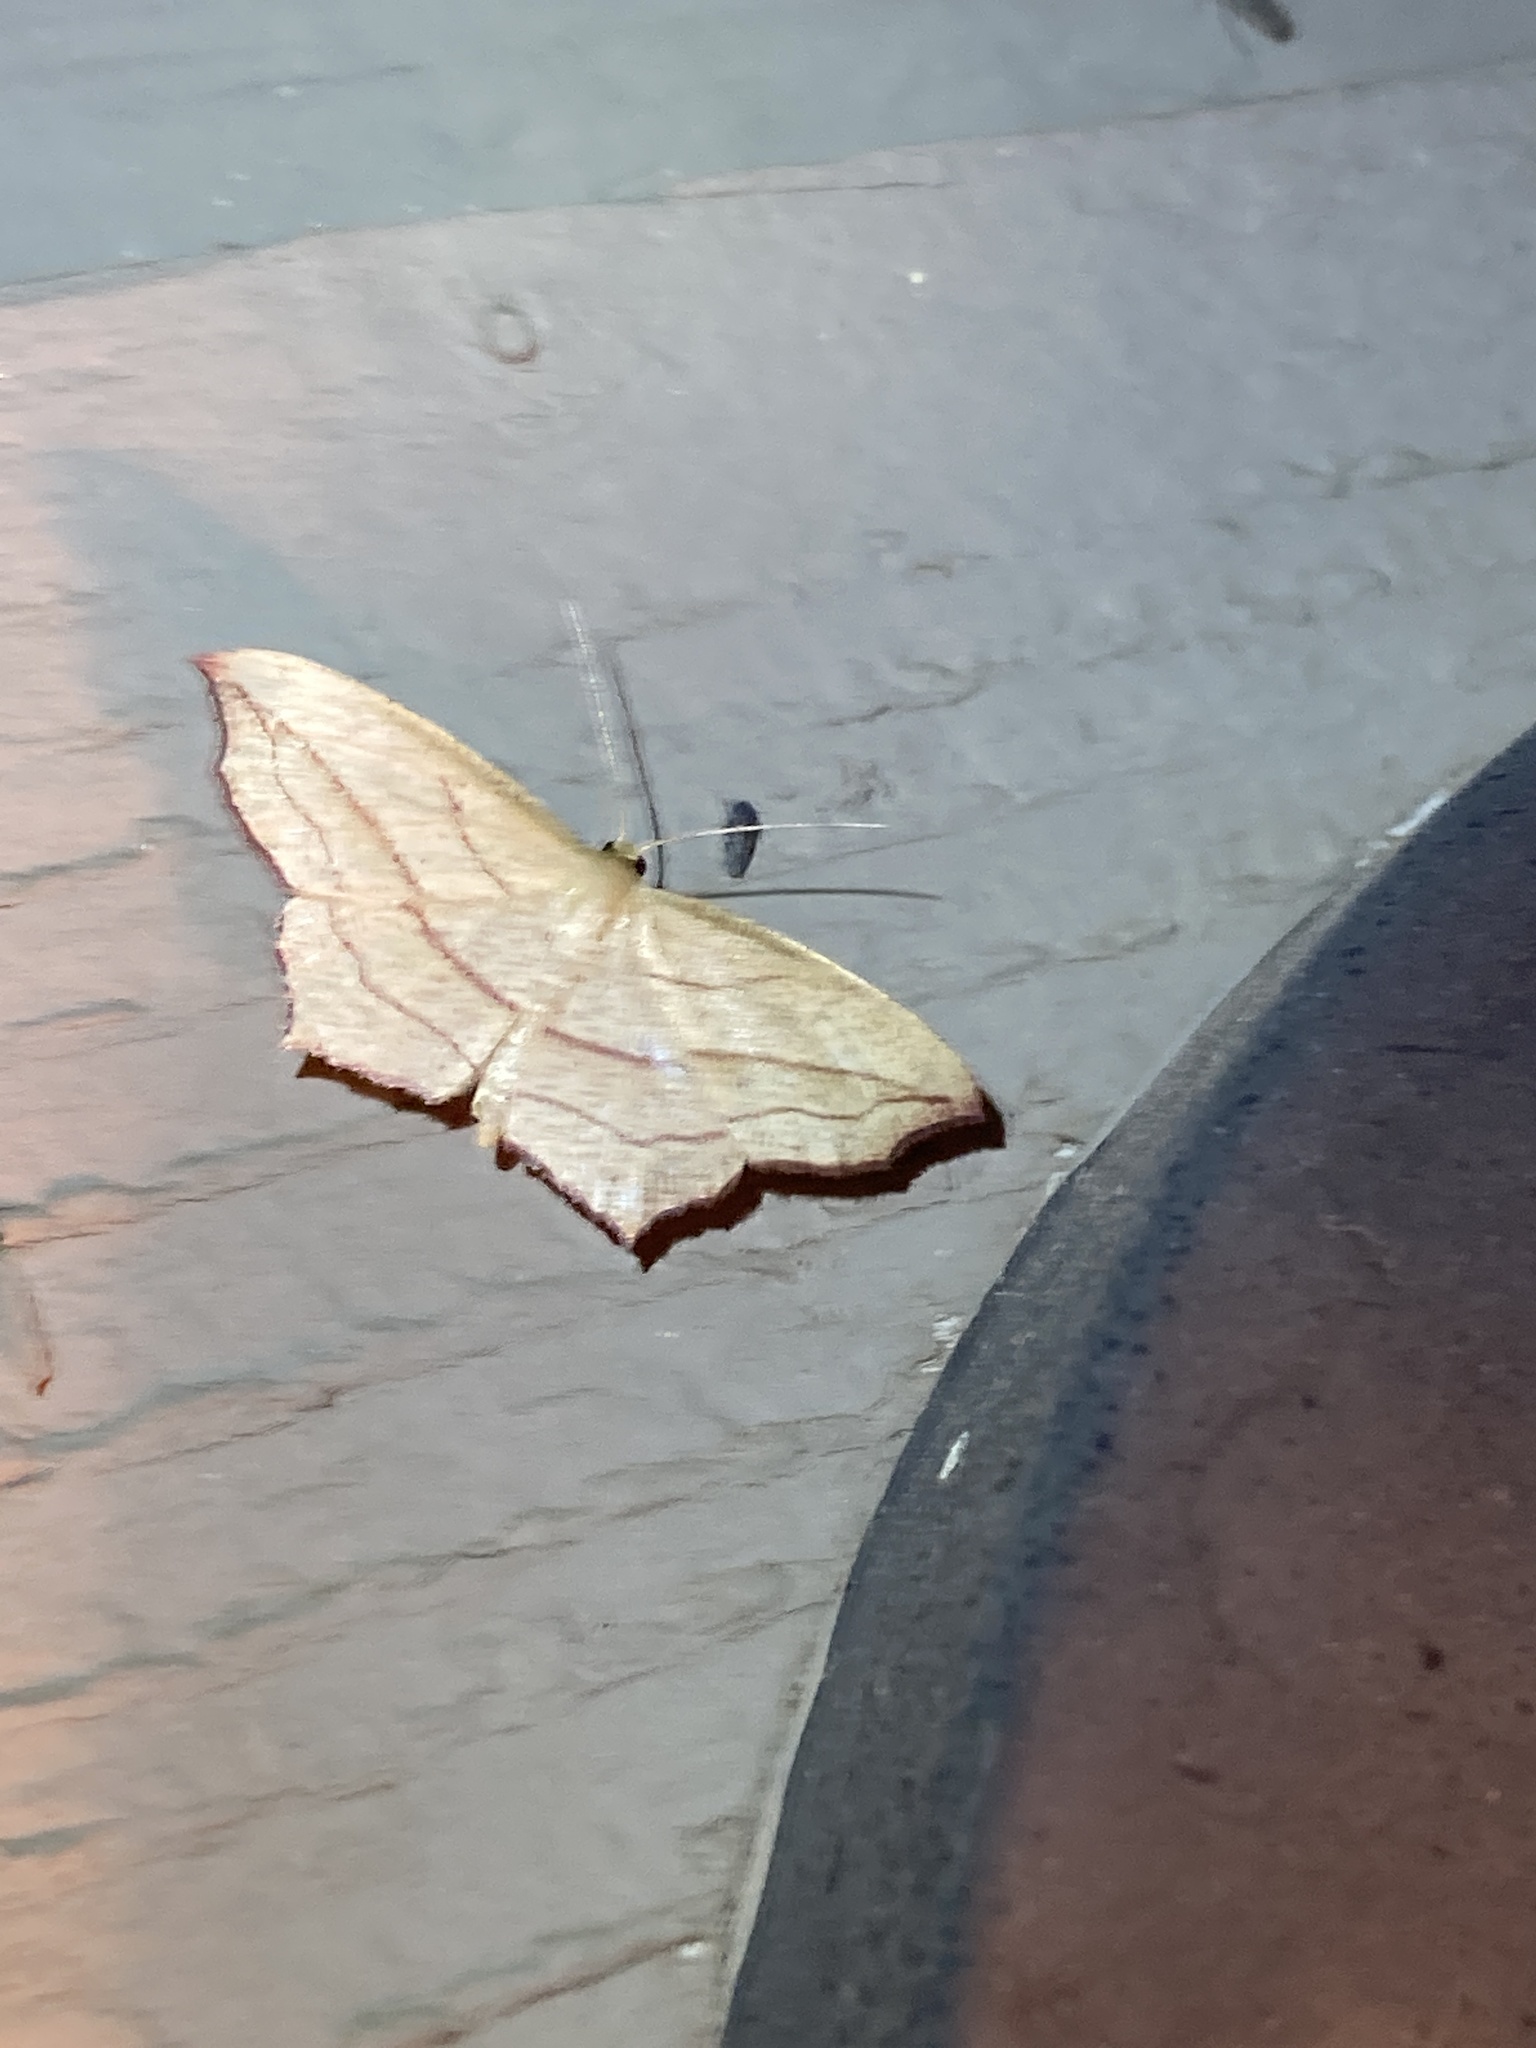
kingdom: Animalia
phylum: Arthropoda
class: Insecta
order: Lepidoptera
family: Geometridae
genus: Timandra
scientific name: Timandra amaturaria
